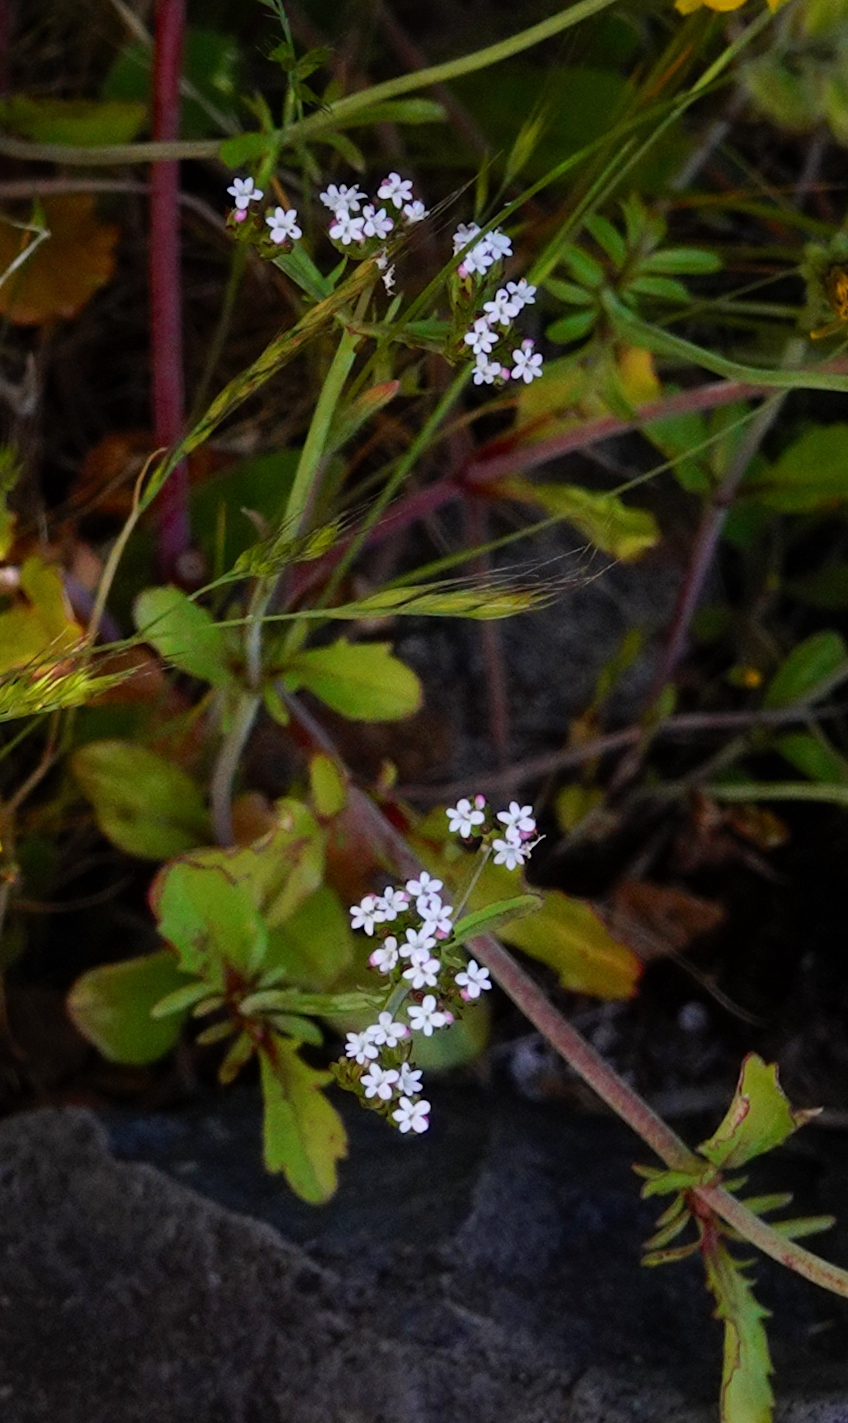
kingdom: Plantae
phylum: Tracheophyta
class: Magnoliopsida
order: Dipsacales
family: Caprifoliaceae
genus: Centranthus
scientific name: Centranthus calcitrapae
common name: Annual valerian
